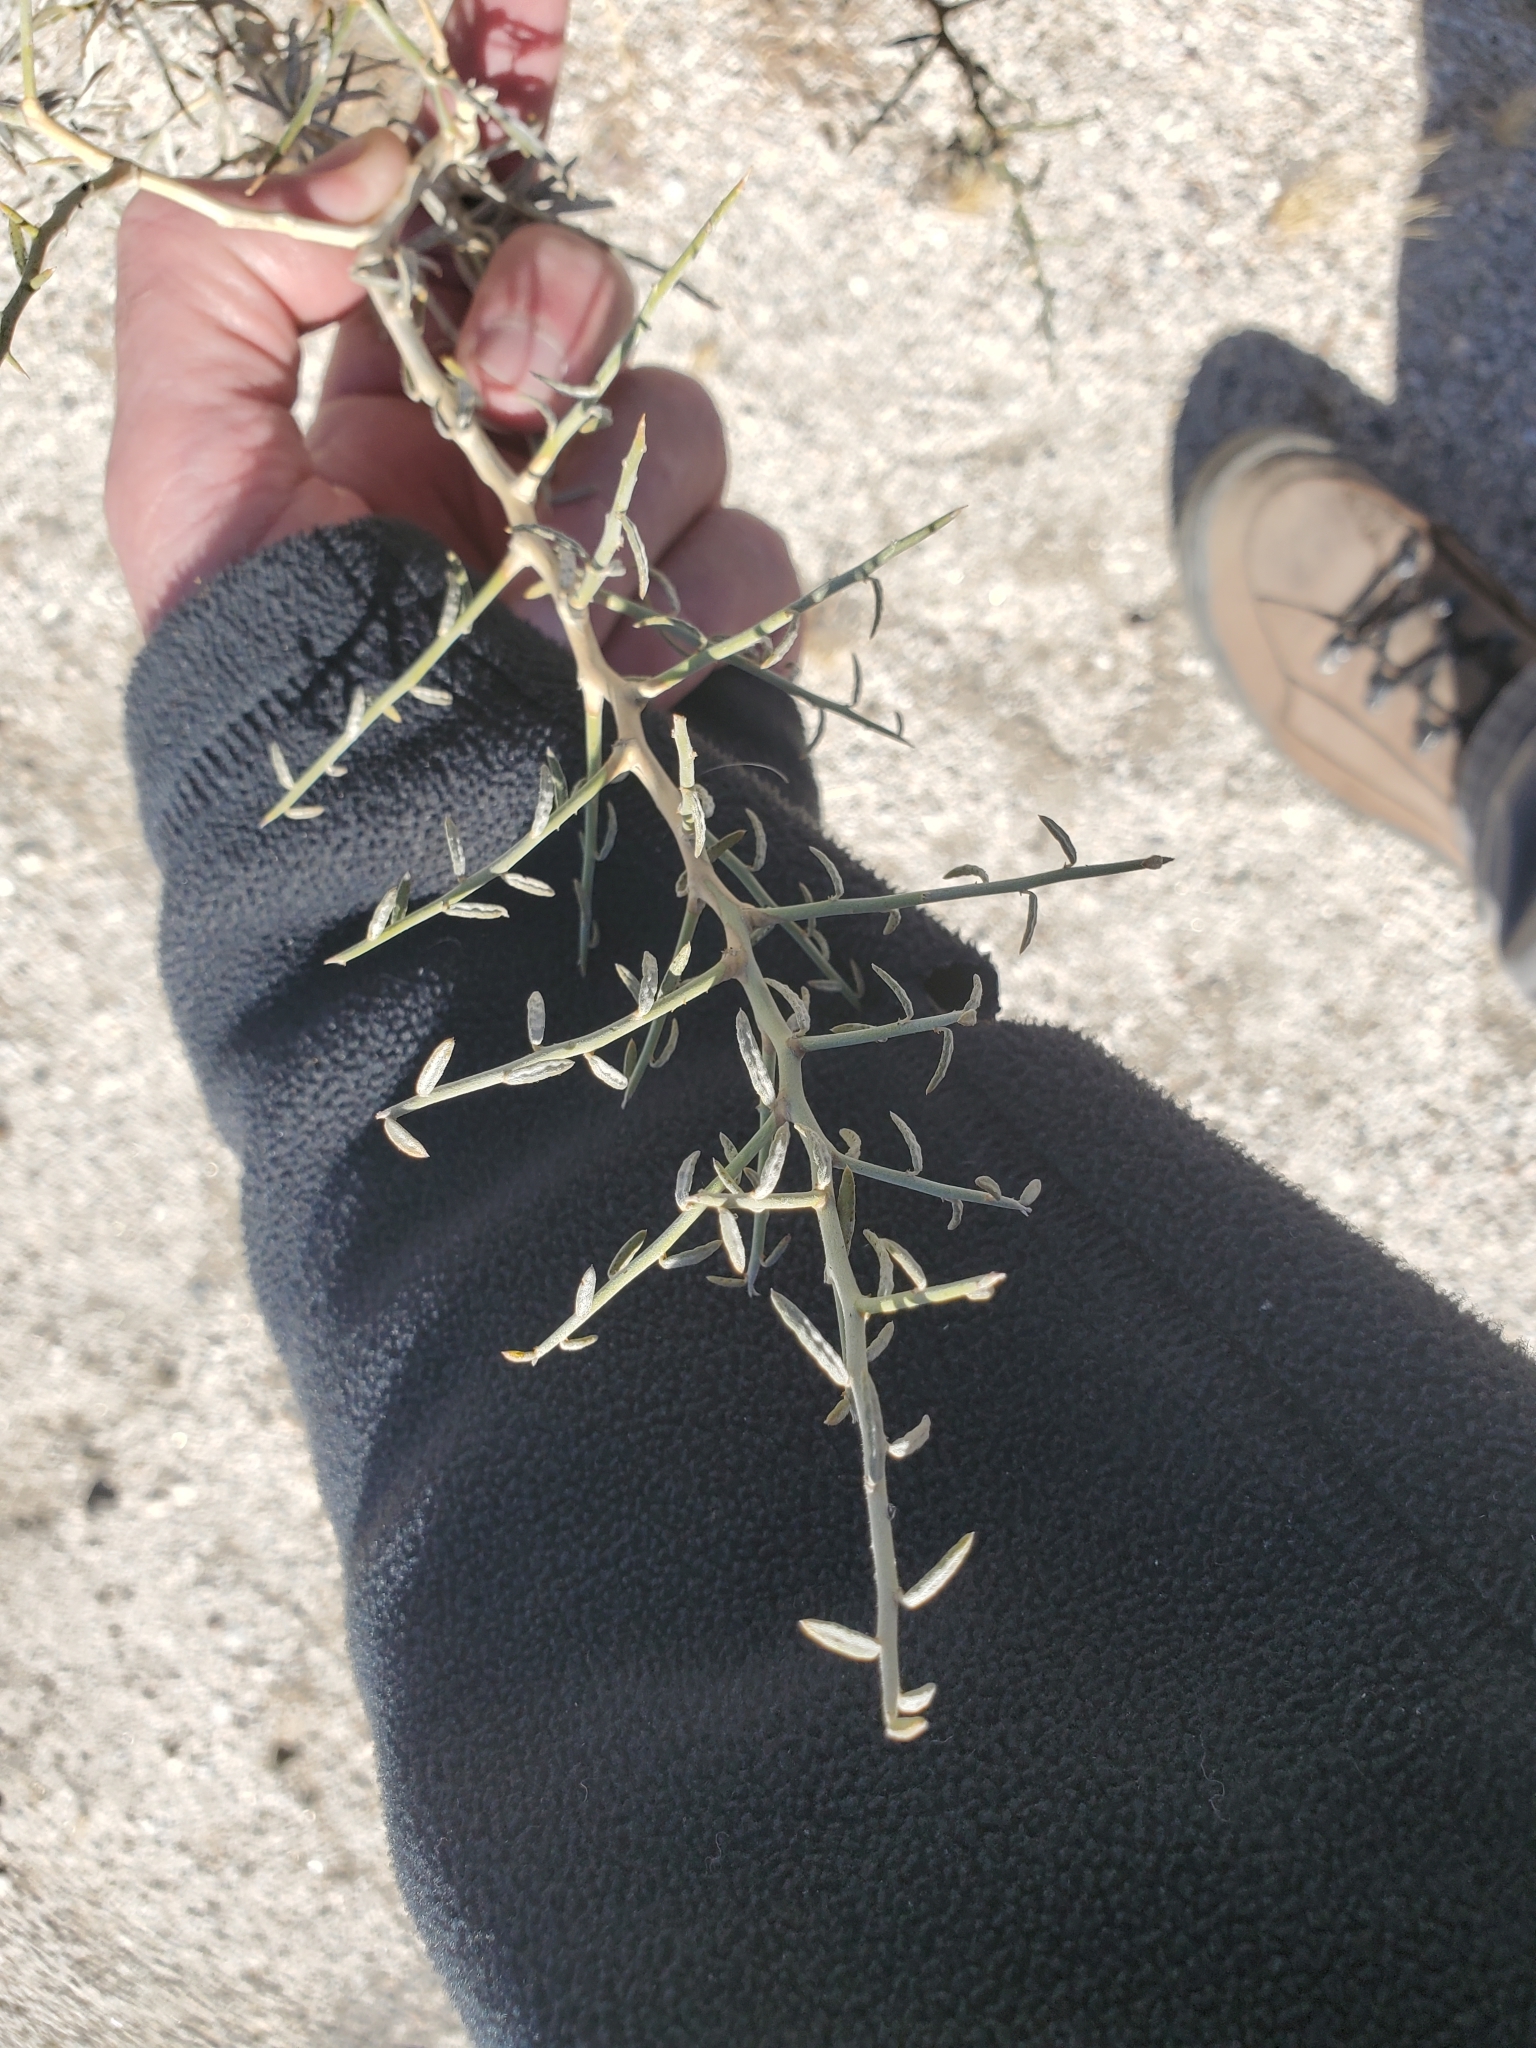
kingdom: Plantae
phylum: Tracheophyta
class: Magnoliopsida
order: Fabales
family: Fabaceae
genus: Psorothamnus
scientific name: Psorothamnus schottii
